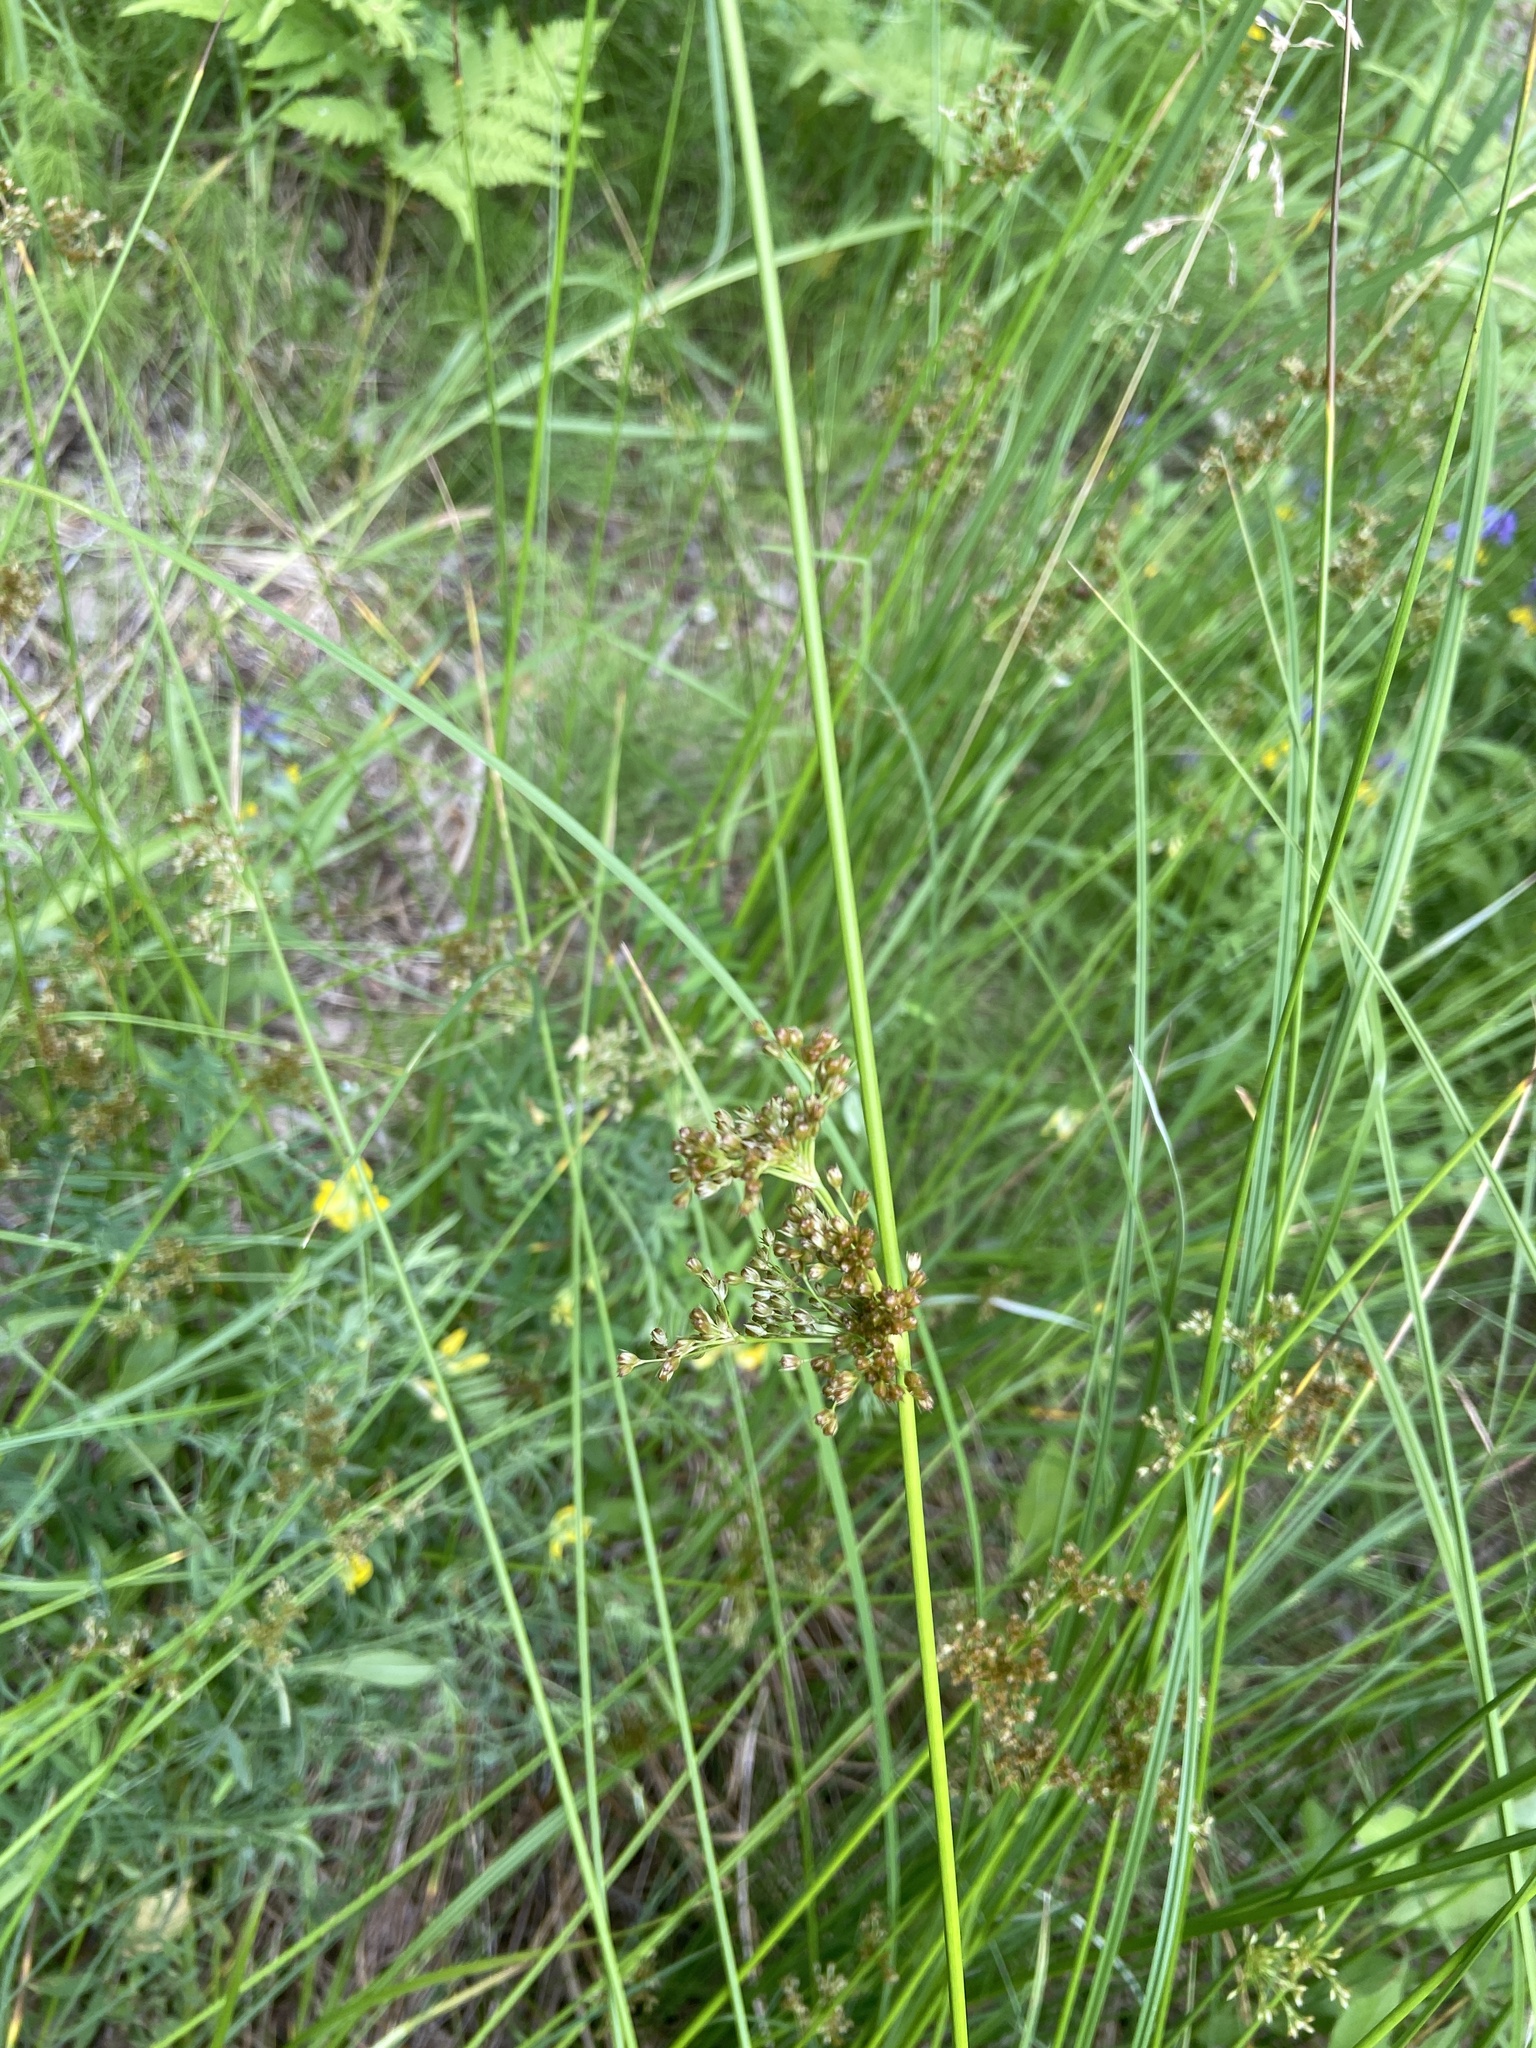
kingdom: Plantae
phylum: Tracheophyta
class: Liliopsida
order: Poales
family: Juncaceae
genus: Juncus
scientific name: Juncus effusus
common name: Soft rush
